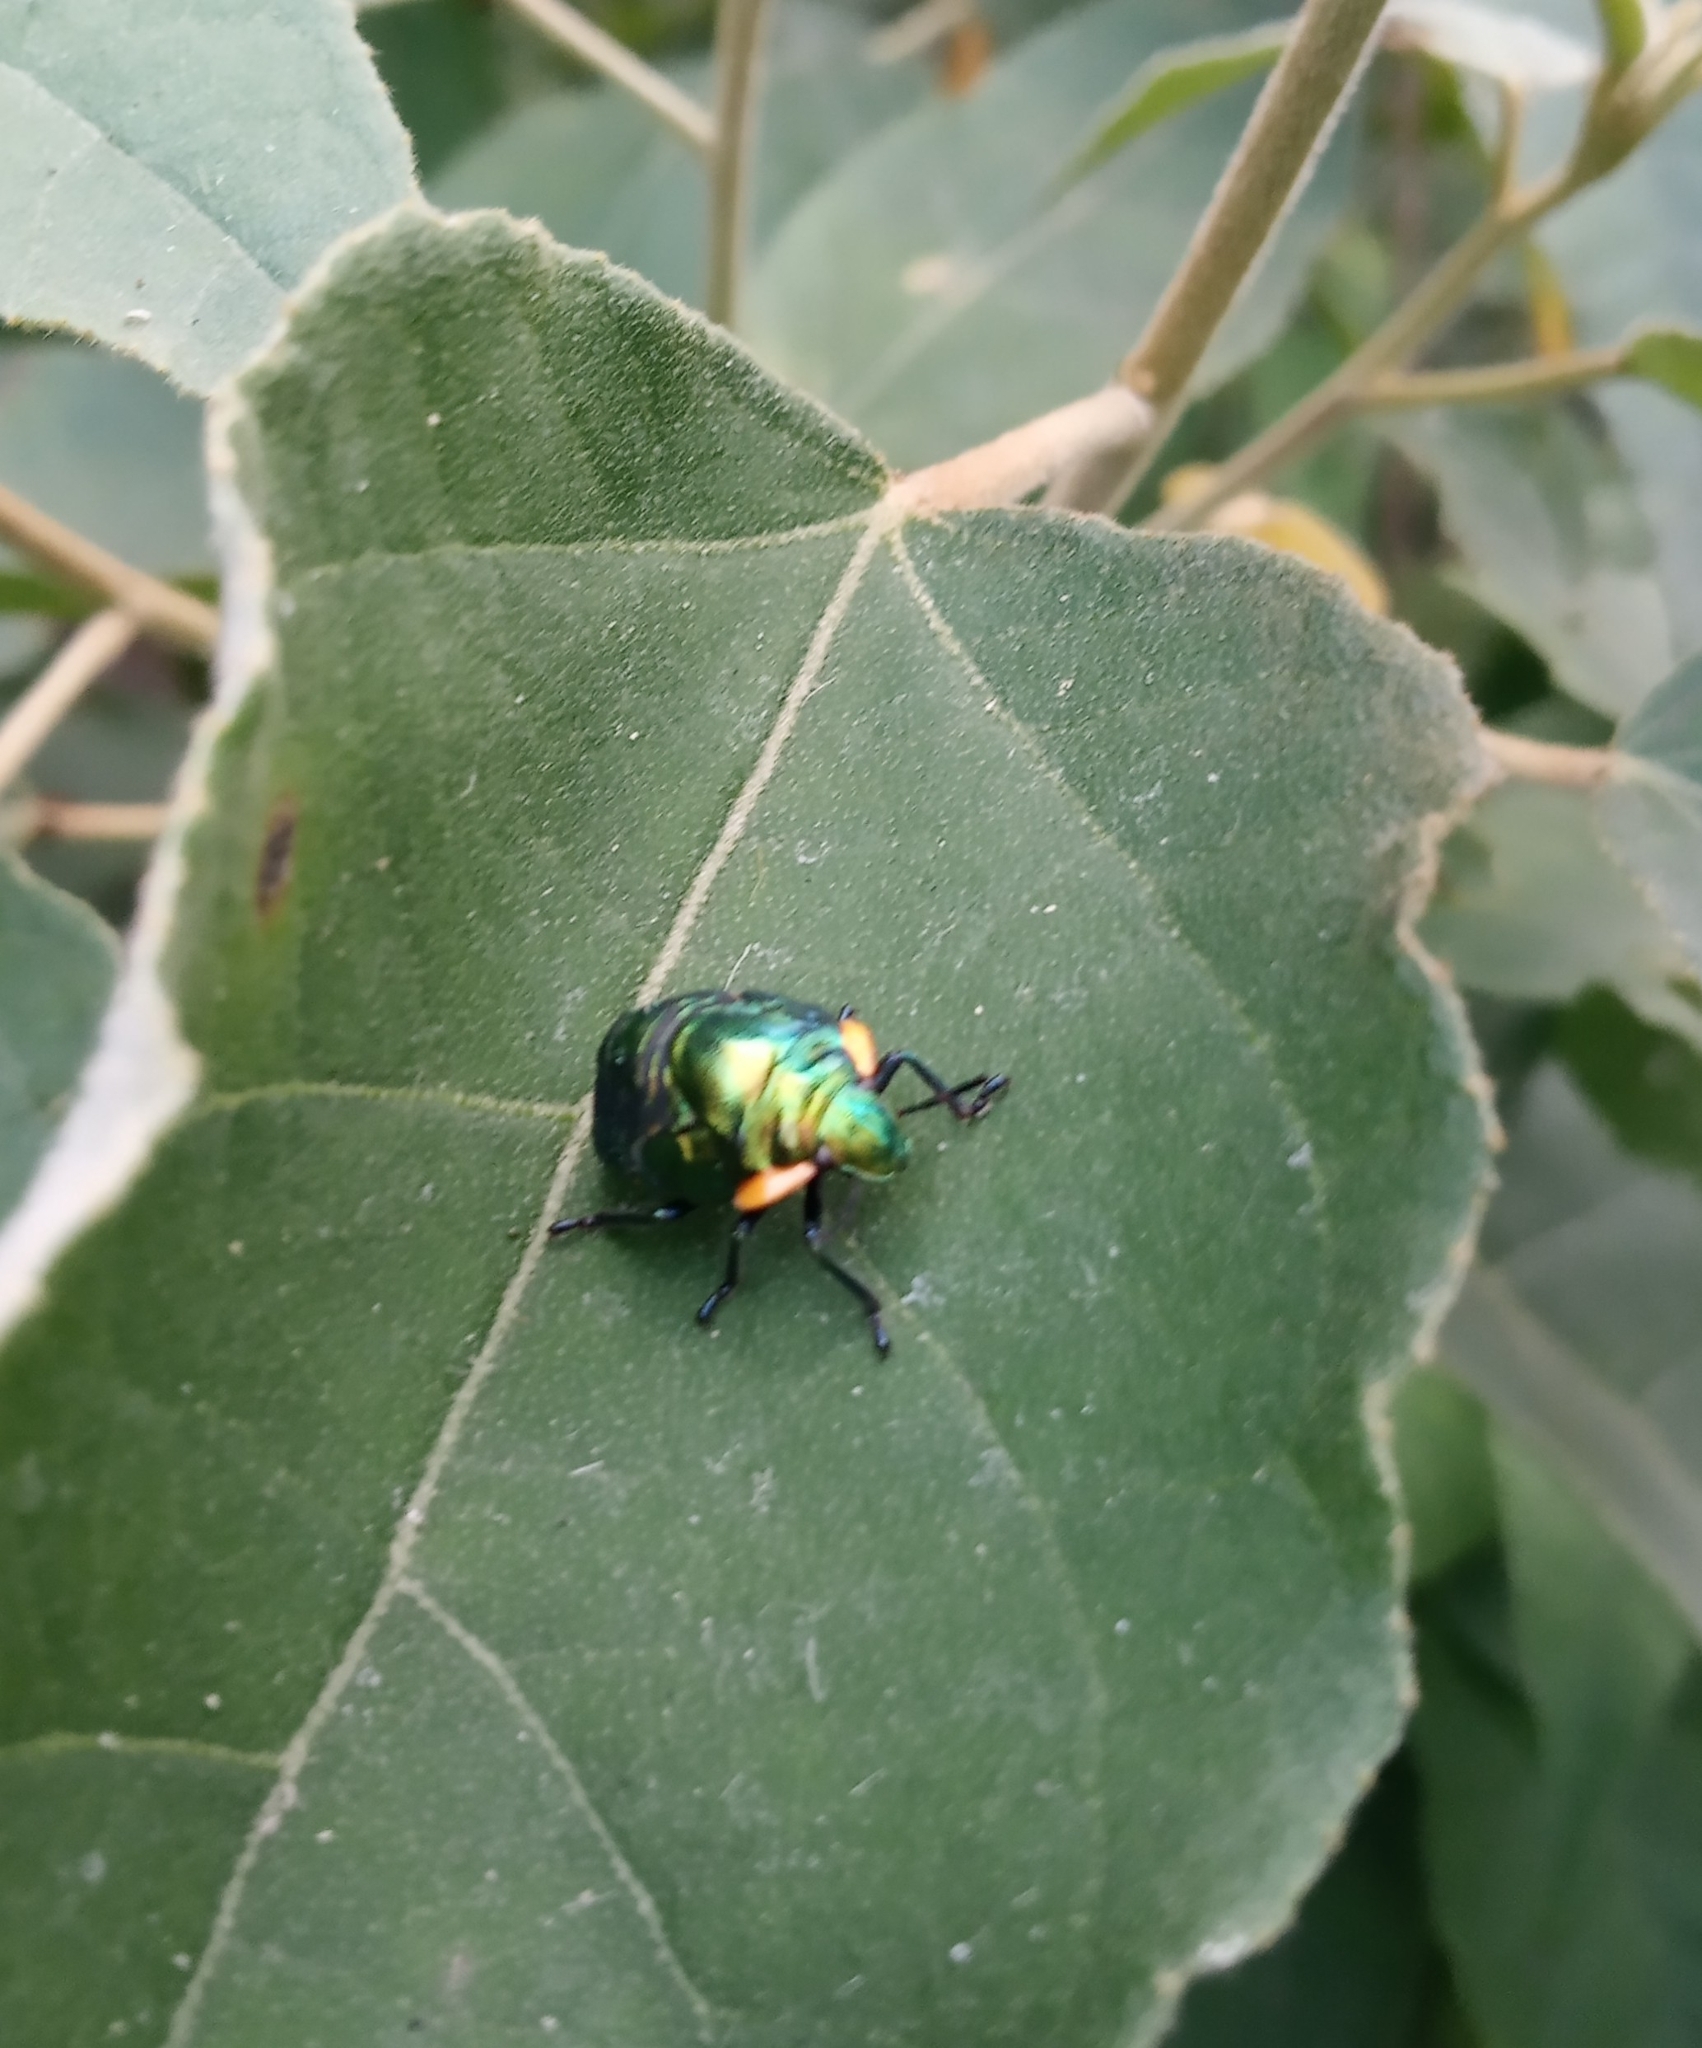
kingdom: Animalia
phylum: Arthropoda
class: Insecta
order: Hemiptera
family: Scutelleridae
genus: Pachycoris
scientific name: Pachycoris torridus
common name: Torrid jewel bug
